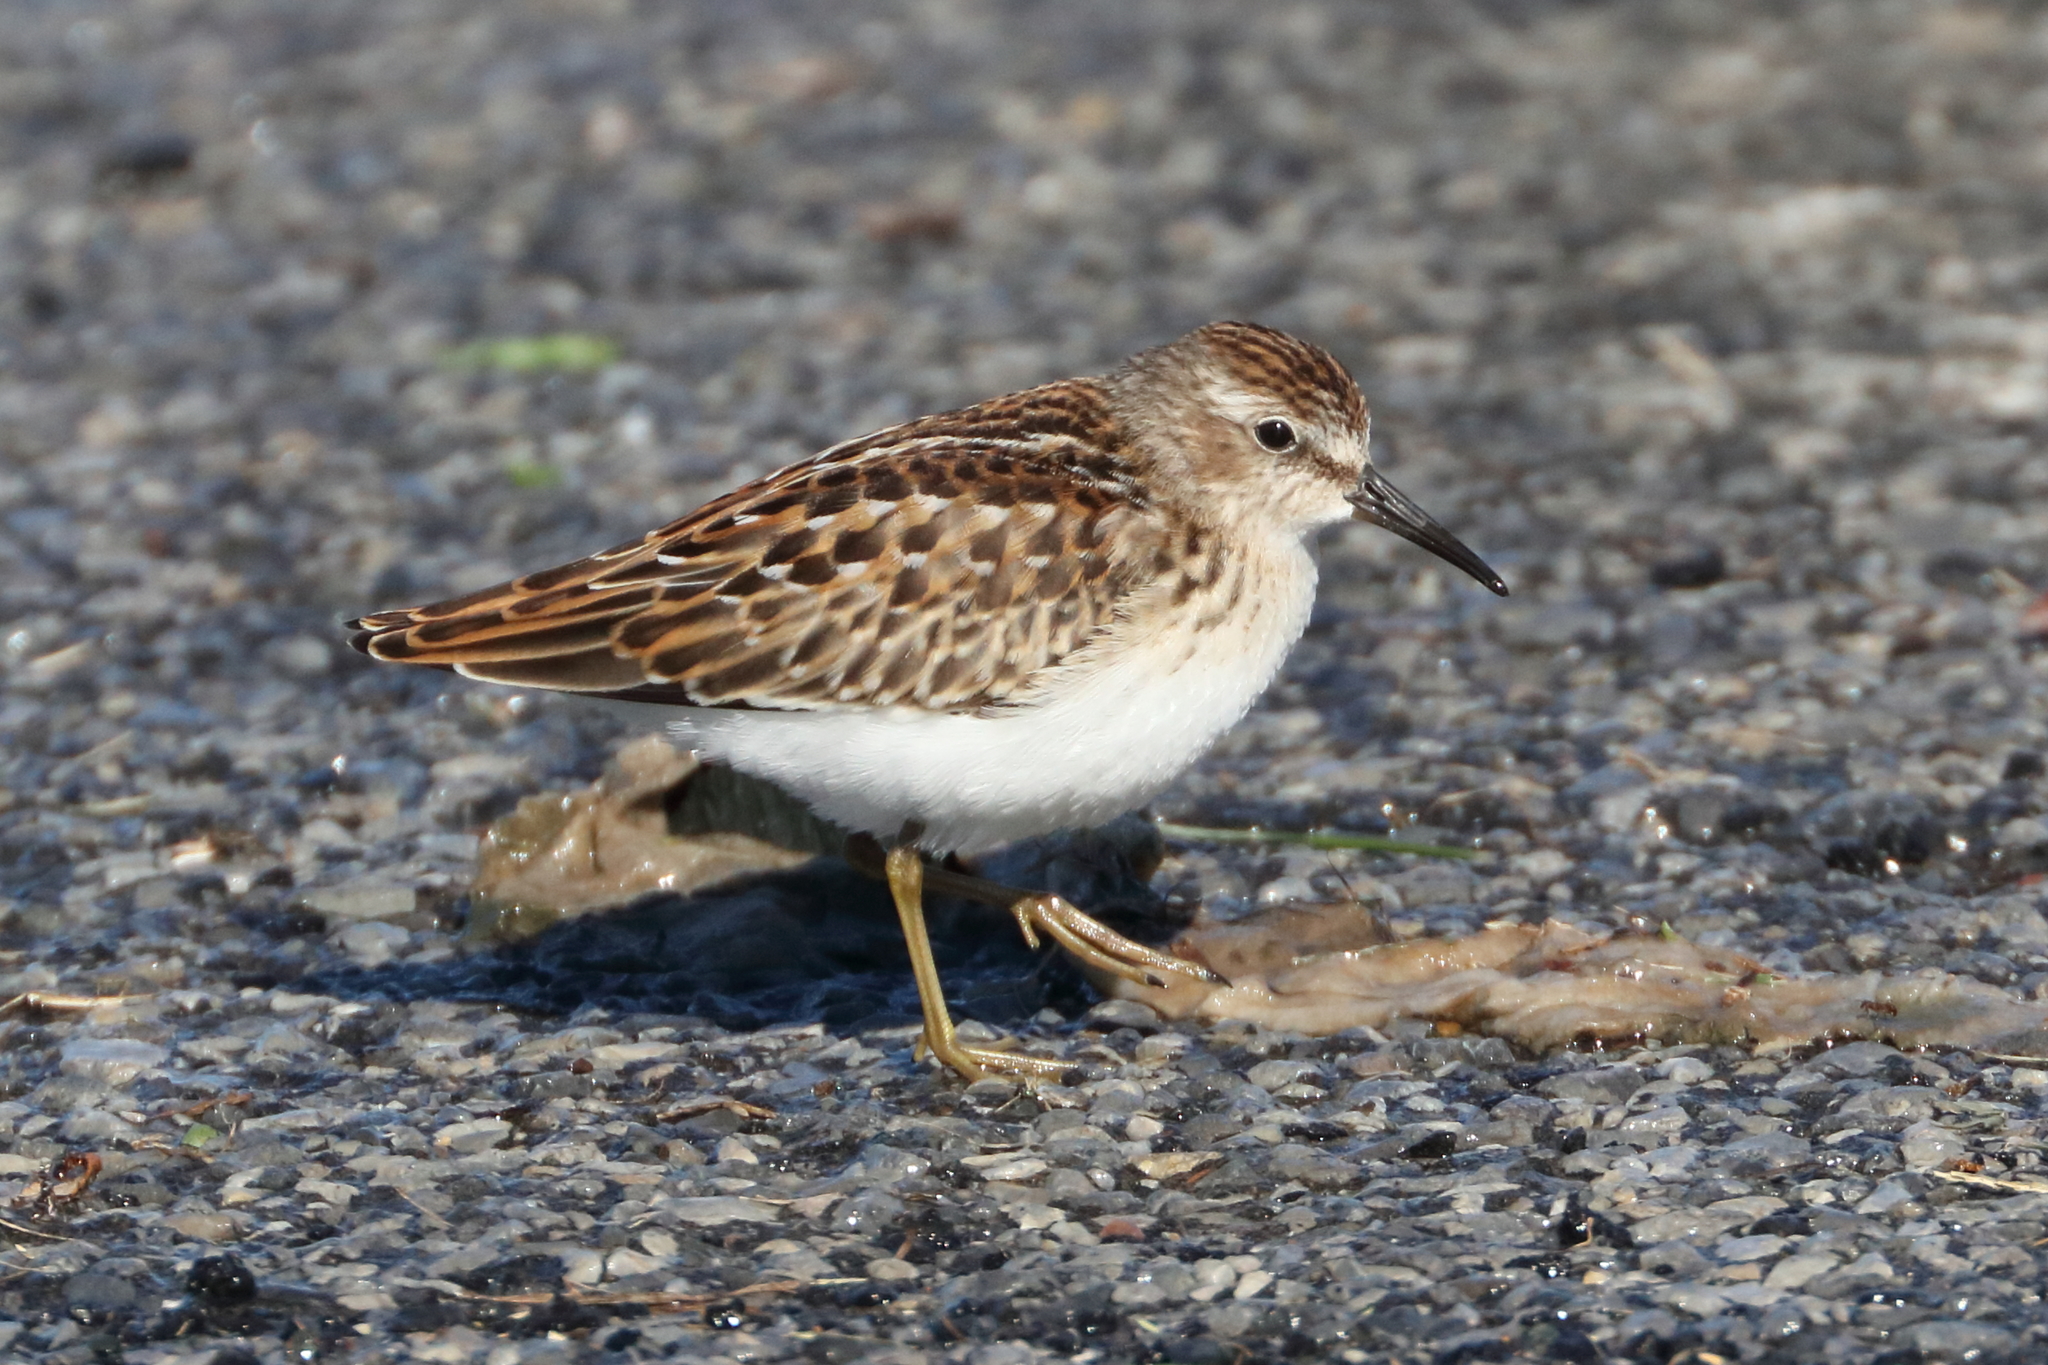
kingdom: Animalia
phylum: Chordata
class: Aves
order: Charadriiformes
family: Scolopacidae
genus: Calidris
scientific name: Calidris minutilla
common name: Least sandpiper
